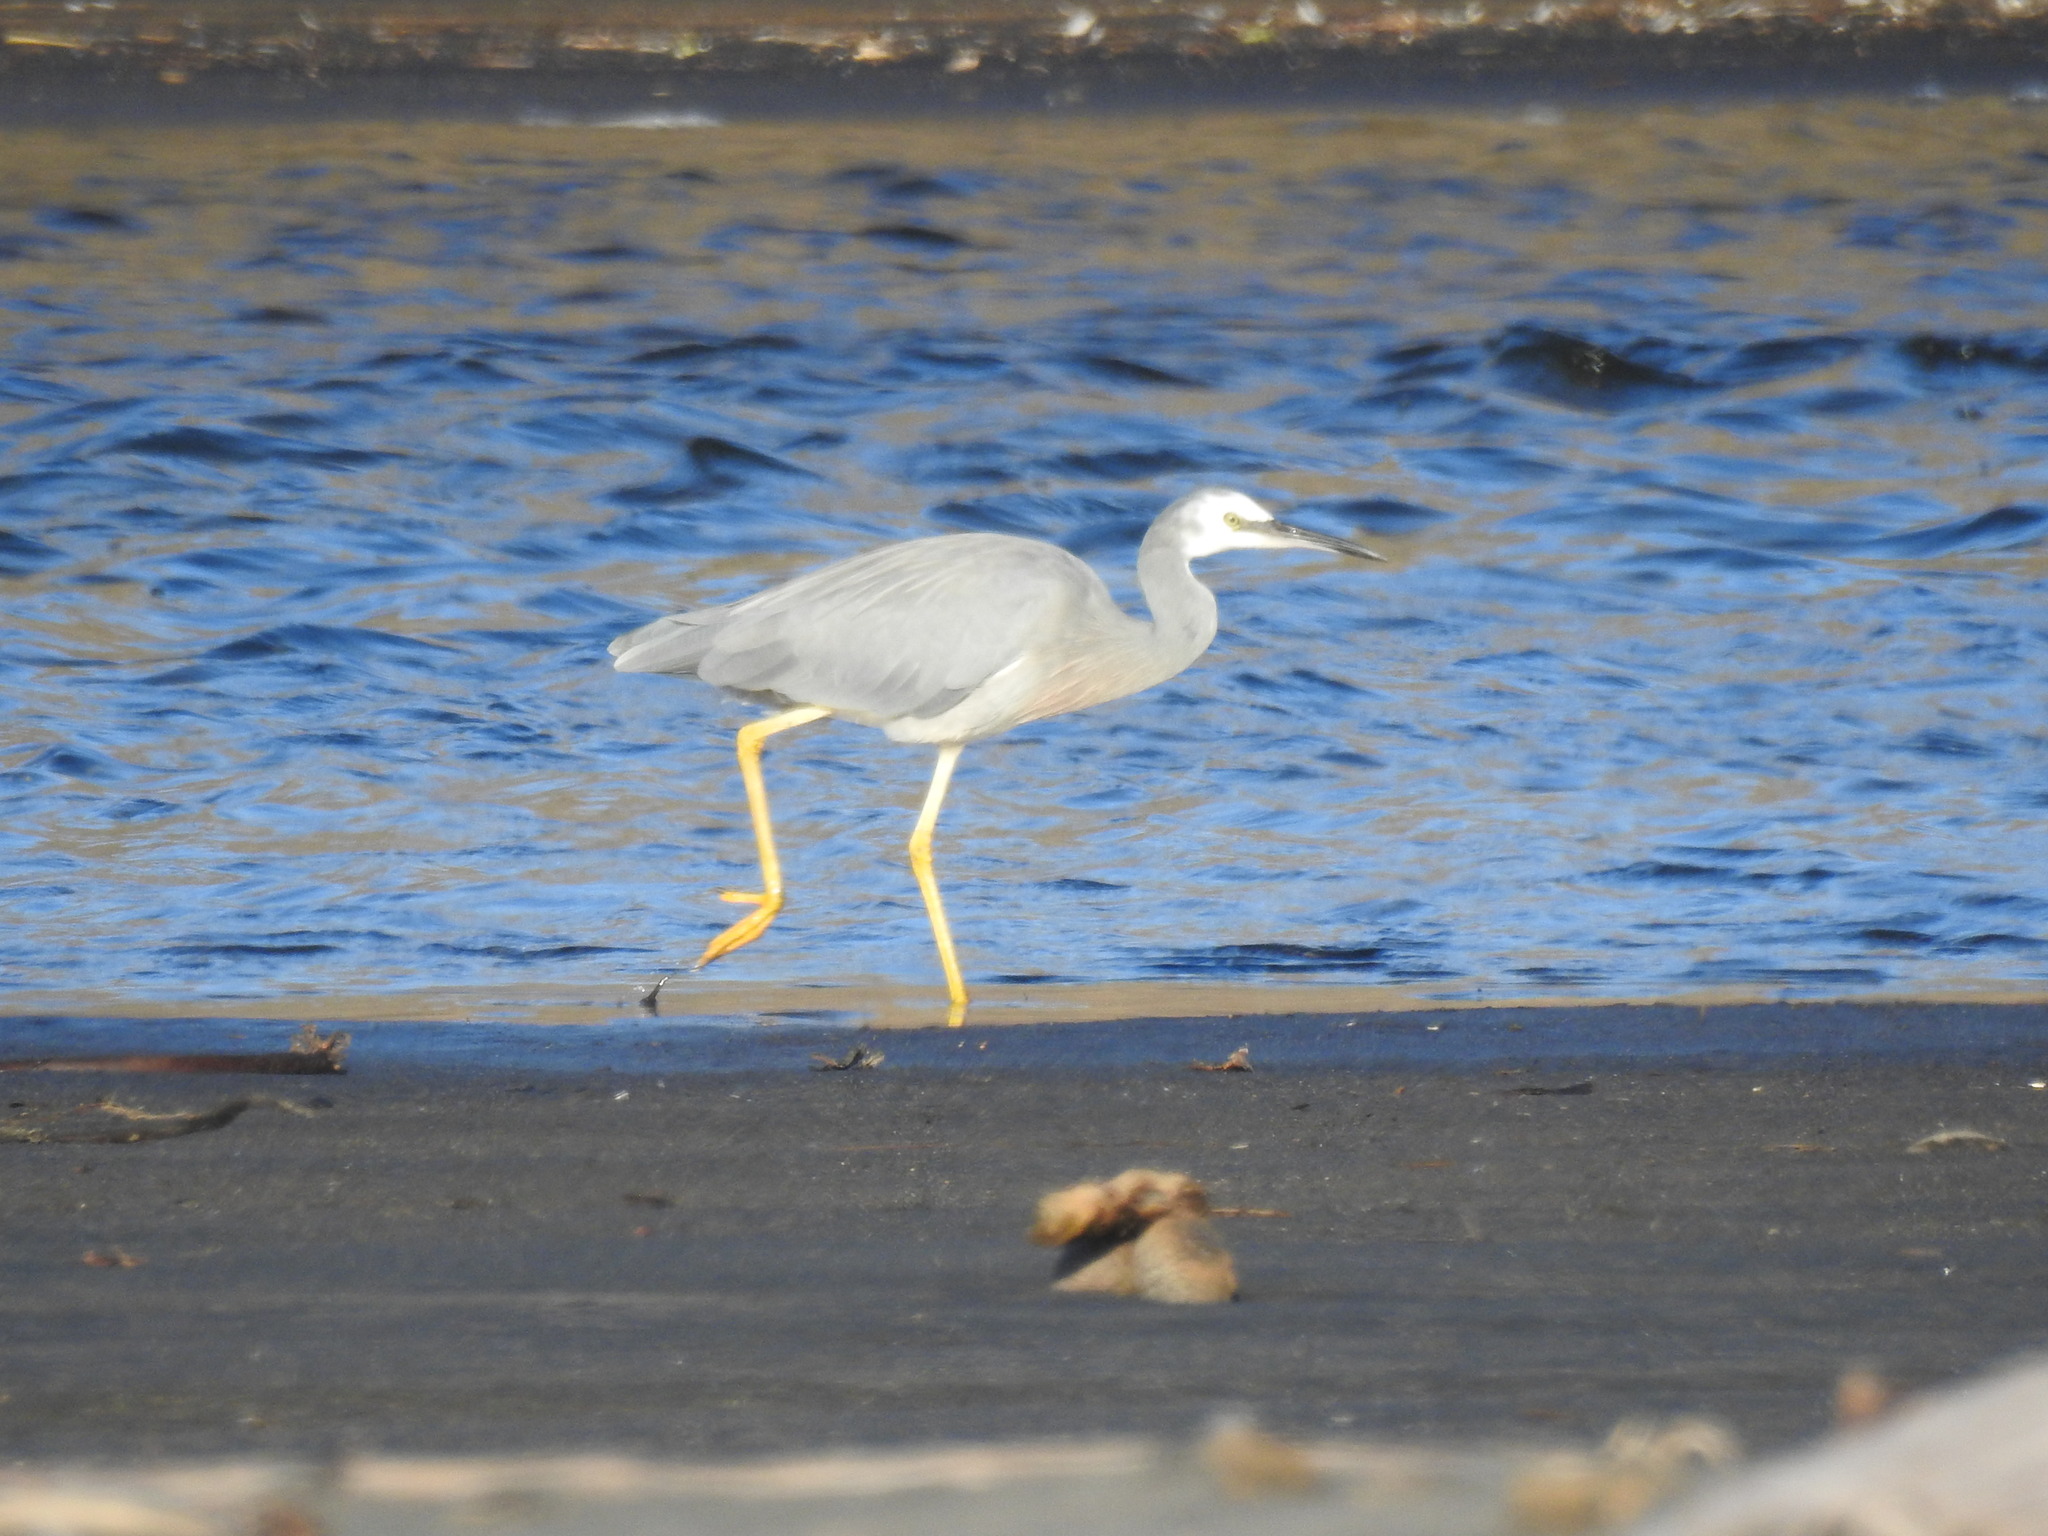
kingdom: Animalia
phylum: Chordata
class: Aves
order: Pelecaniformes
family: Ardeidae
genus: Egretta
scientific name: Egretta novaehollandiae
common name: White-faced heron
